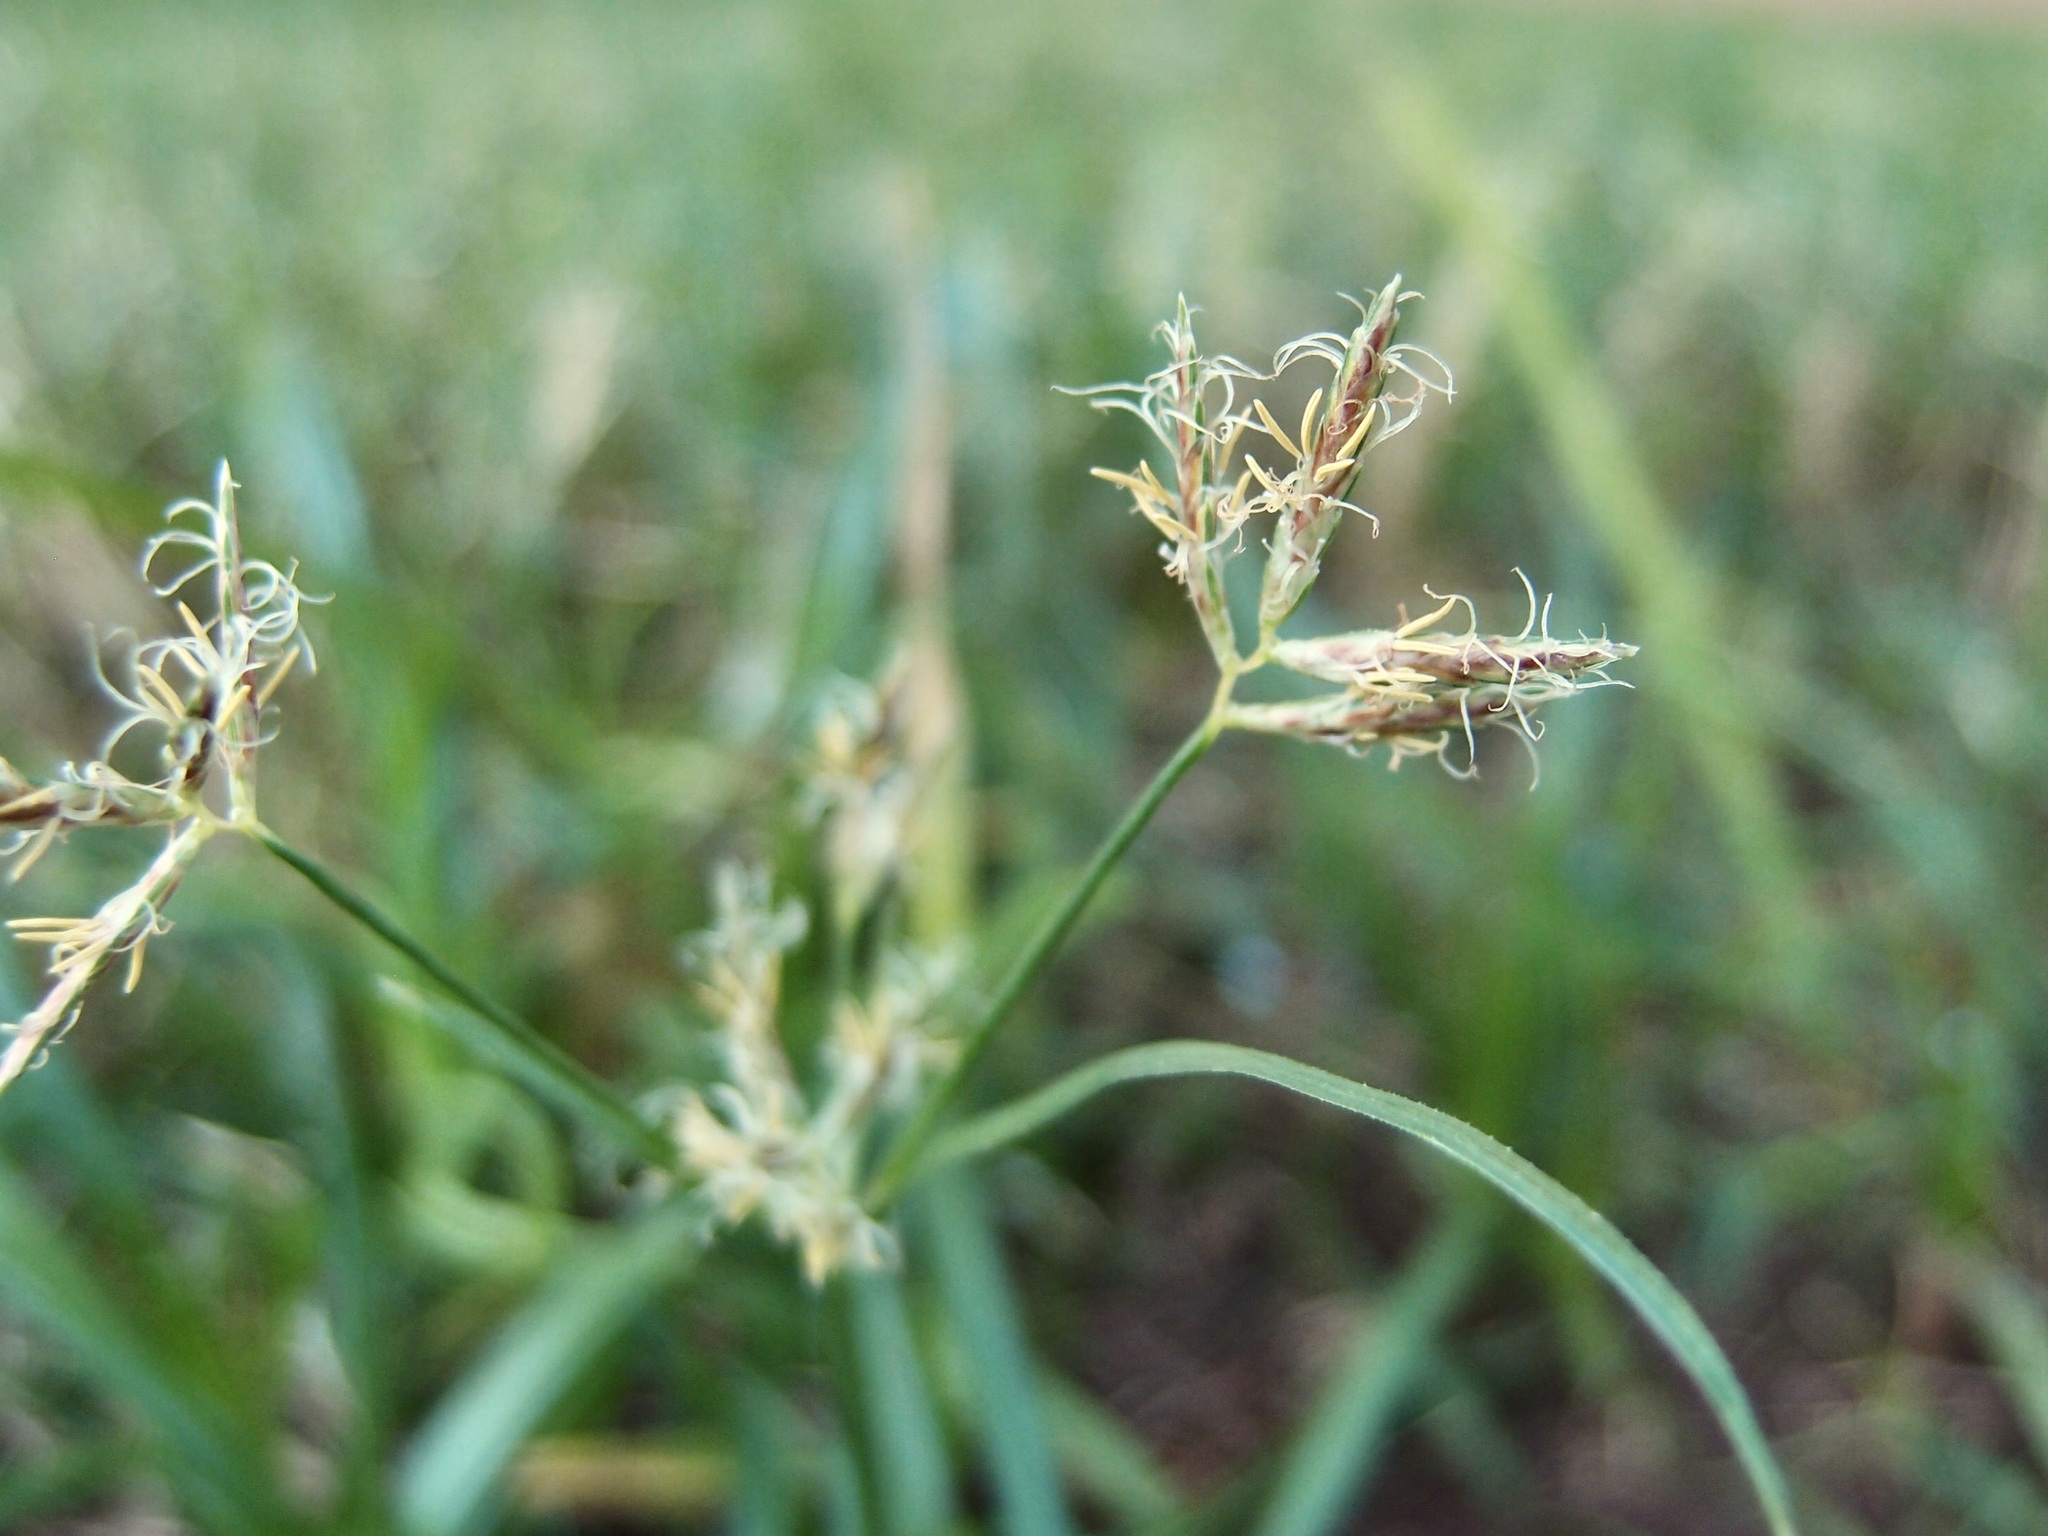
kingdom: Plantae
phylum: Tracheophyta
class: Liliopsida
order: Poales
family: Cyperaceae
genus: Cyperus
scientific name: Cyperus rotundus
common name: Nutgrass
